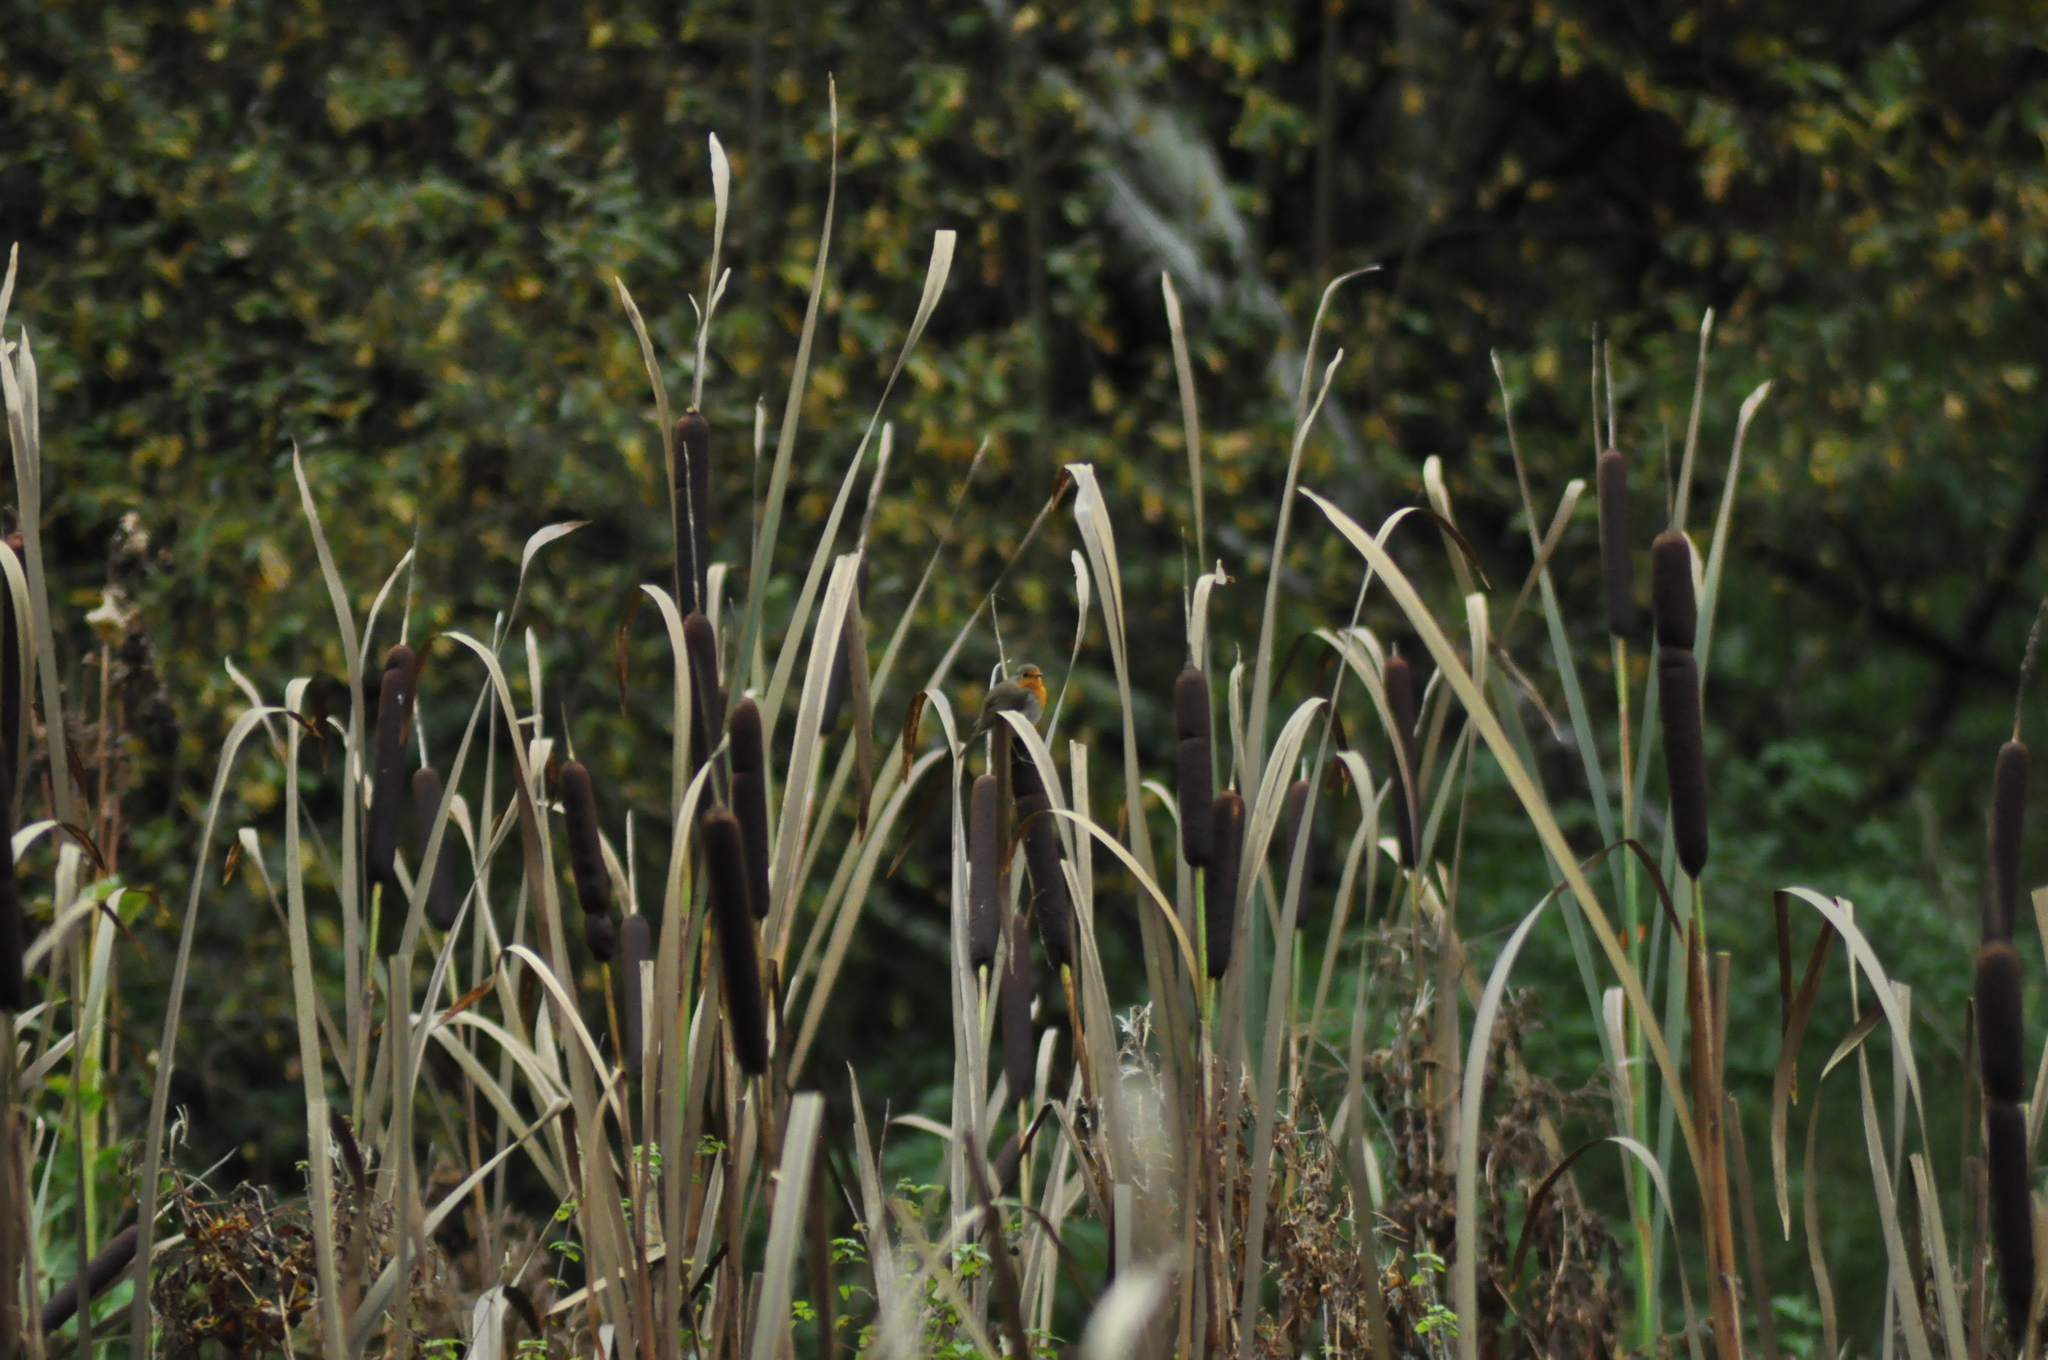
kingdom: Animalia
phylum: Chordata
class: Aves
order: Passeriformes
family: Muscicapidae
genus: Erithacus
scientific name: Erithacus rubecula
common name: European robin
